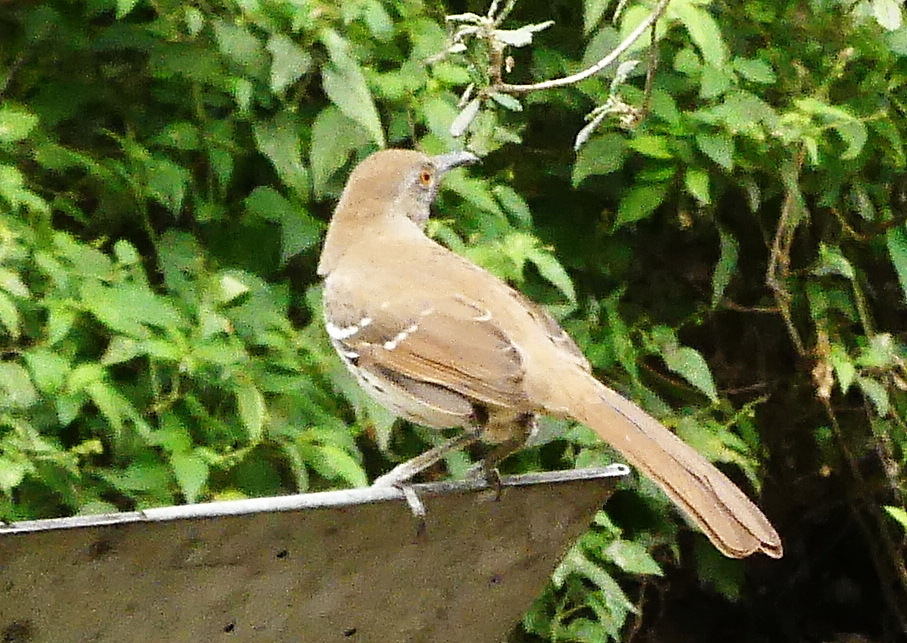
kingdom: Animalia
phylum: Chordata
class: Aves
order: Passeriformes
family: Mimidae
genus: Toxostoma
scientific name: Toxostoma longirostre
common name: Long-billed thrasher
